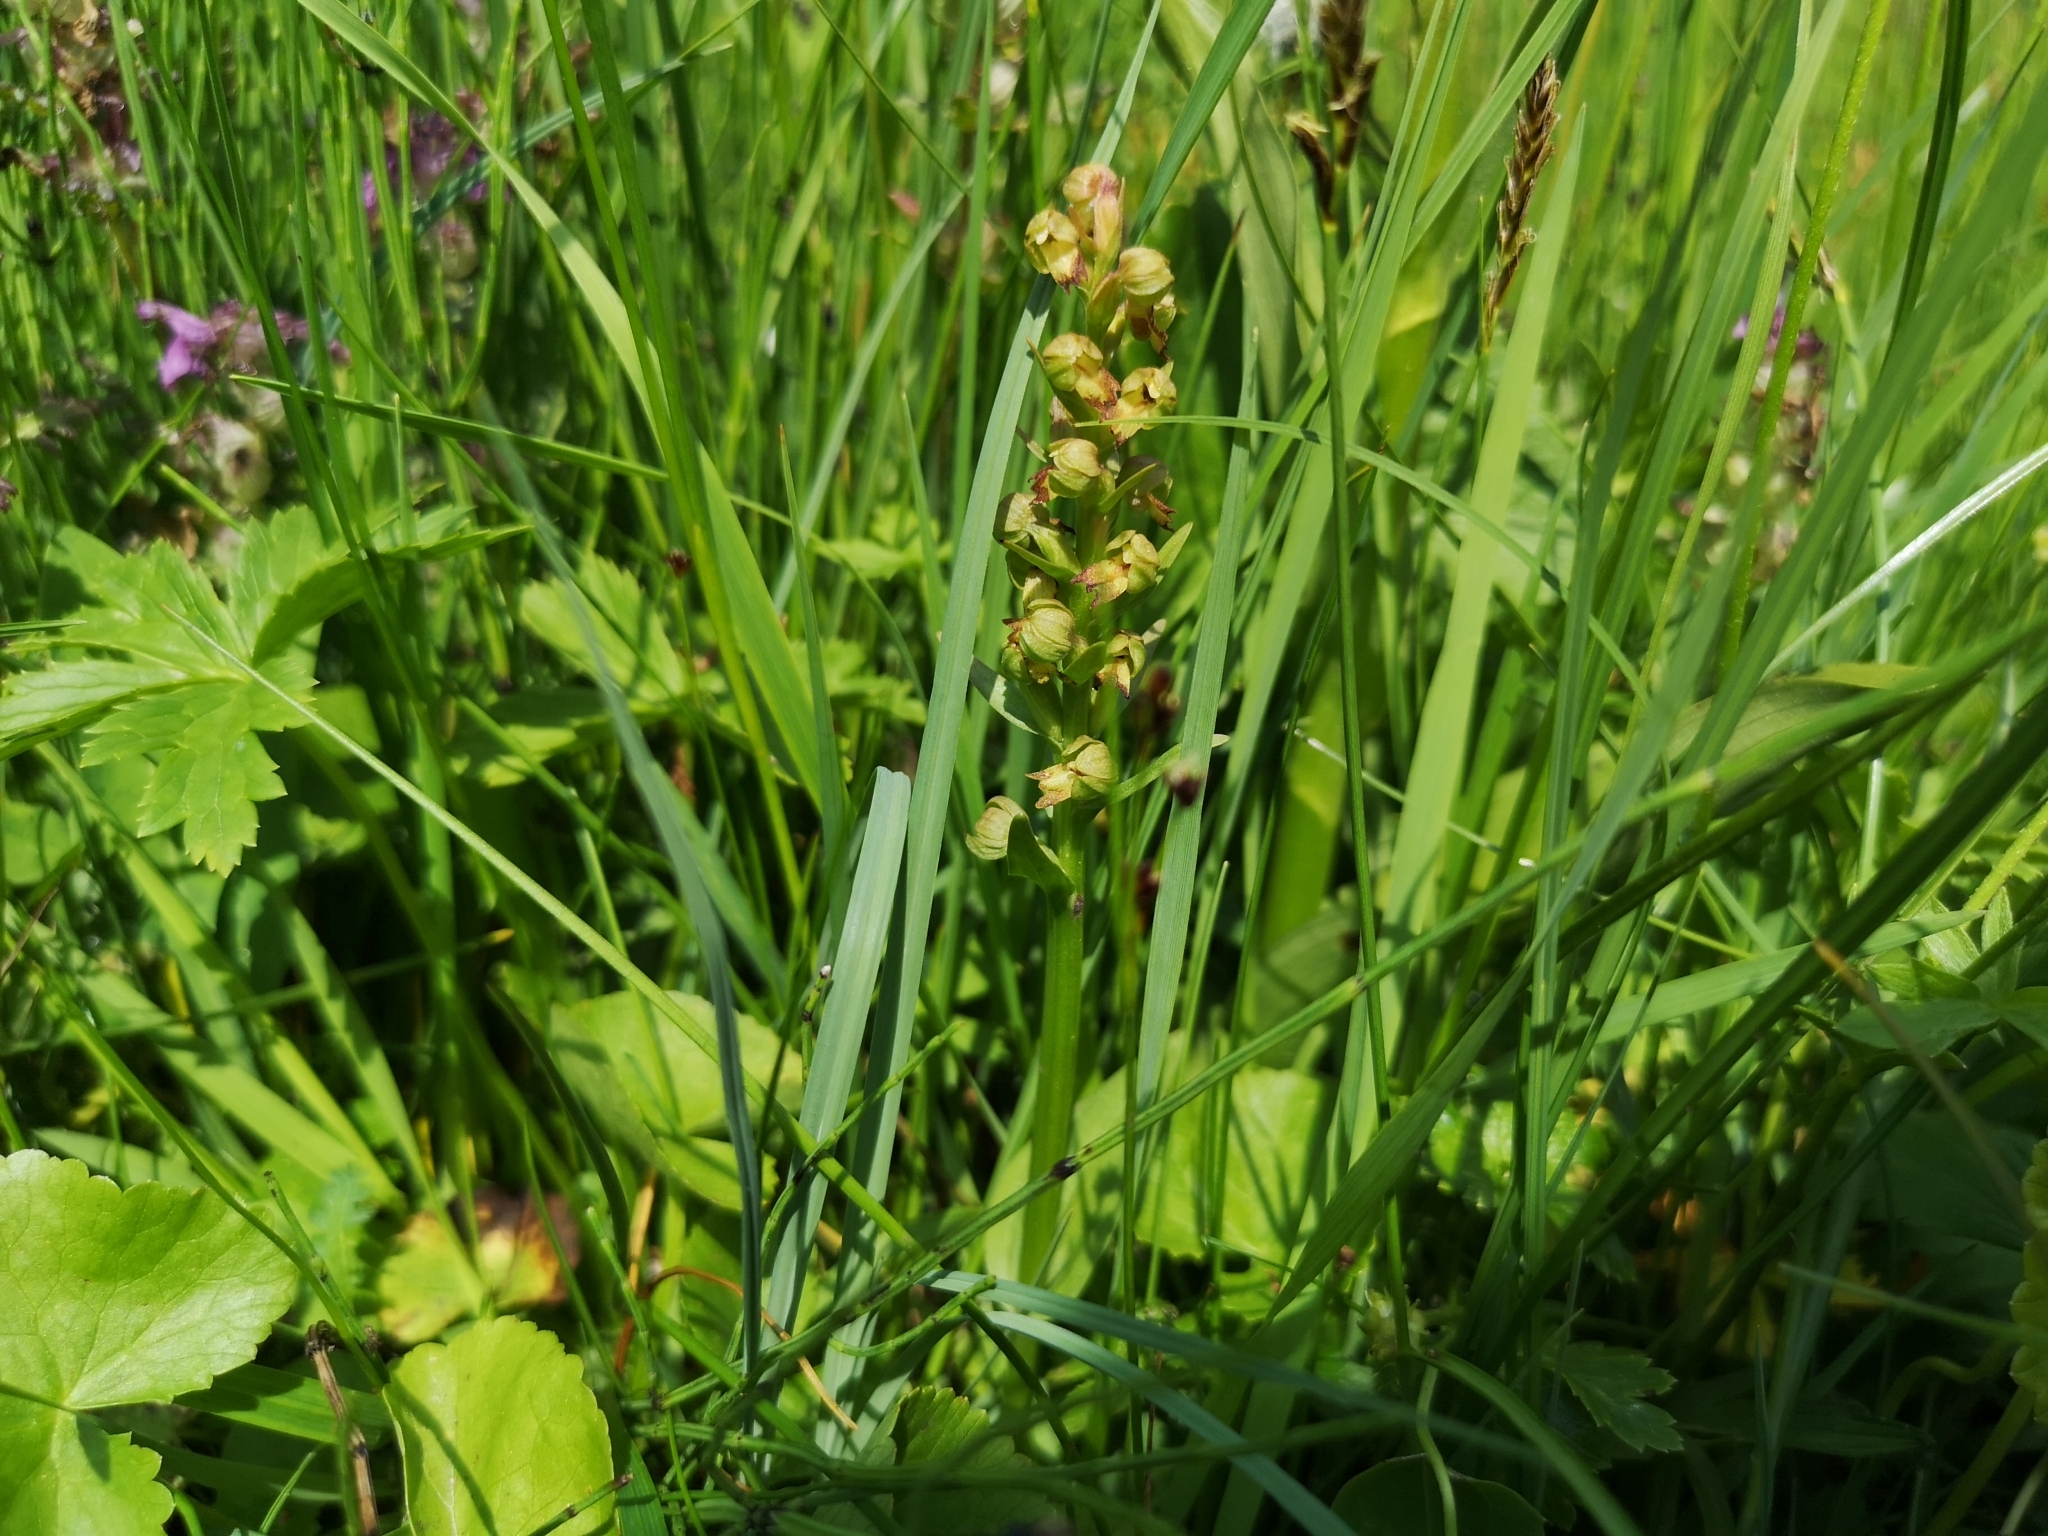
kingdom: Plantae
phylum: Tracheophyta
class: Liliopsida
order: Asparagales
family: Orchidaceae
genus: Dactylorhiza
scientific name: Dactylorhiza viridis
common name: Longbract frog orchid
